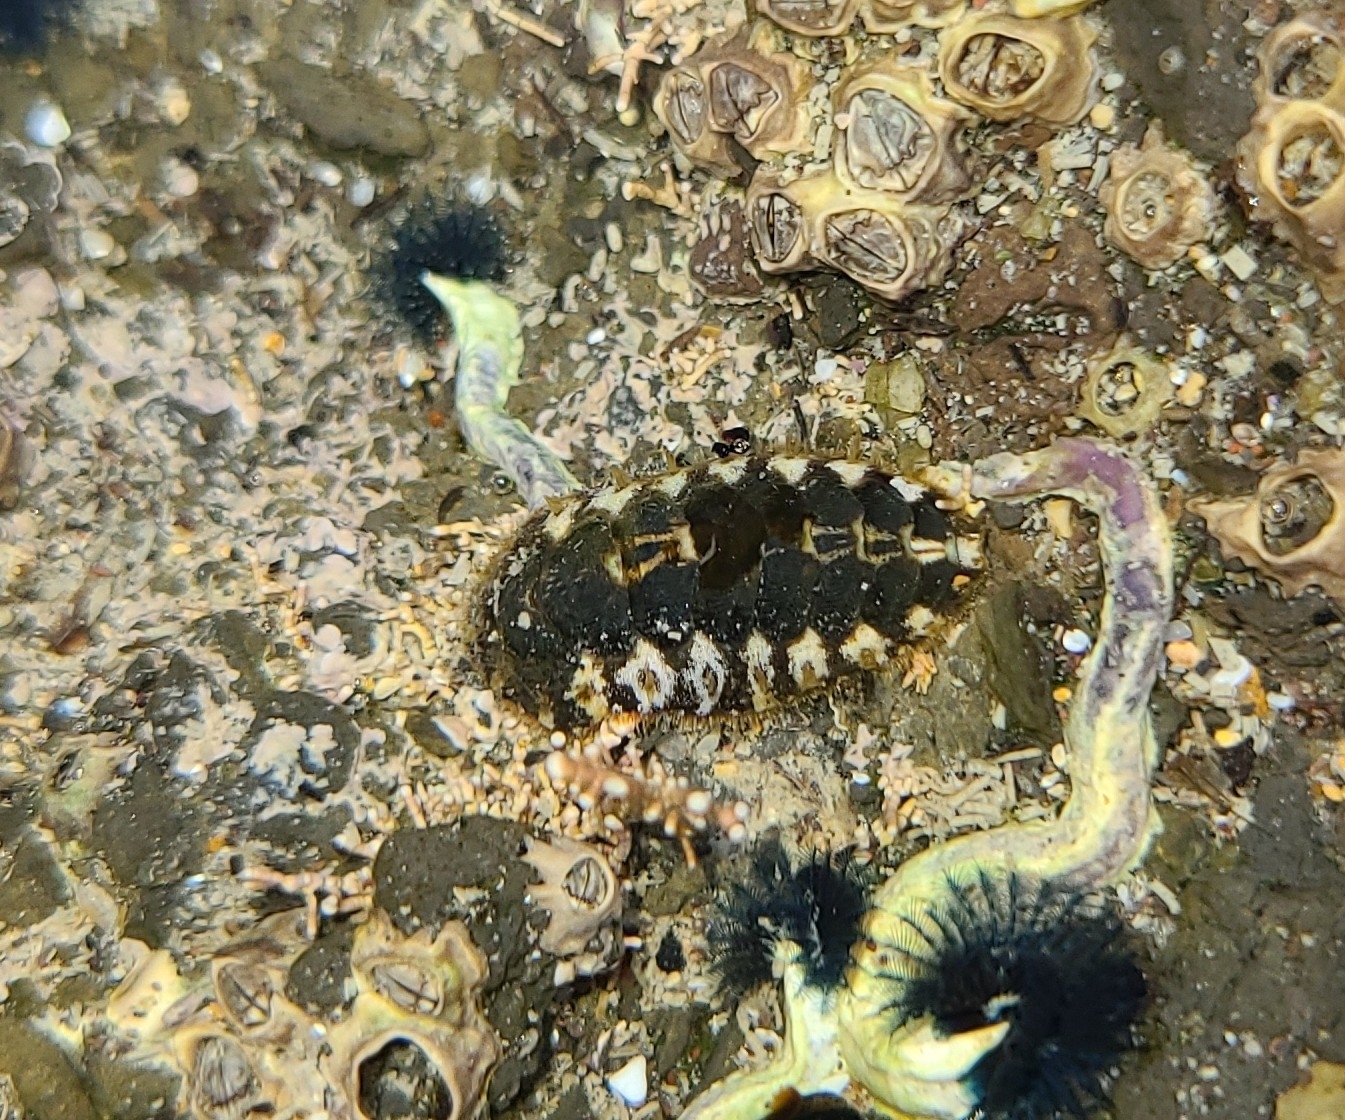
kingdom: Animalia
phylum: Mollusca
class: Polyplacophora
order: Chitonida
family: Mopaliidae
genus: Plaxiphora
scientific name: Plaxiphora caelata
